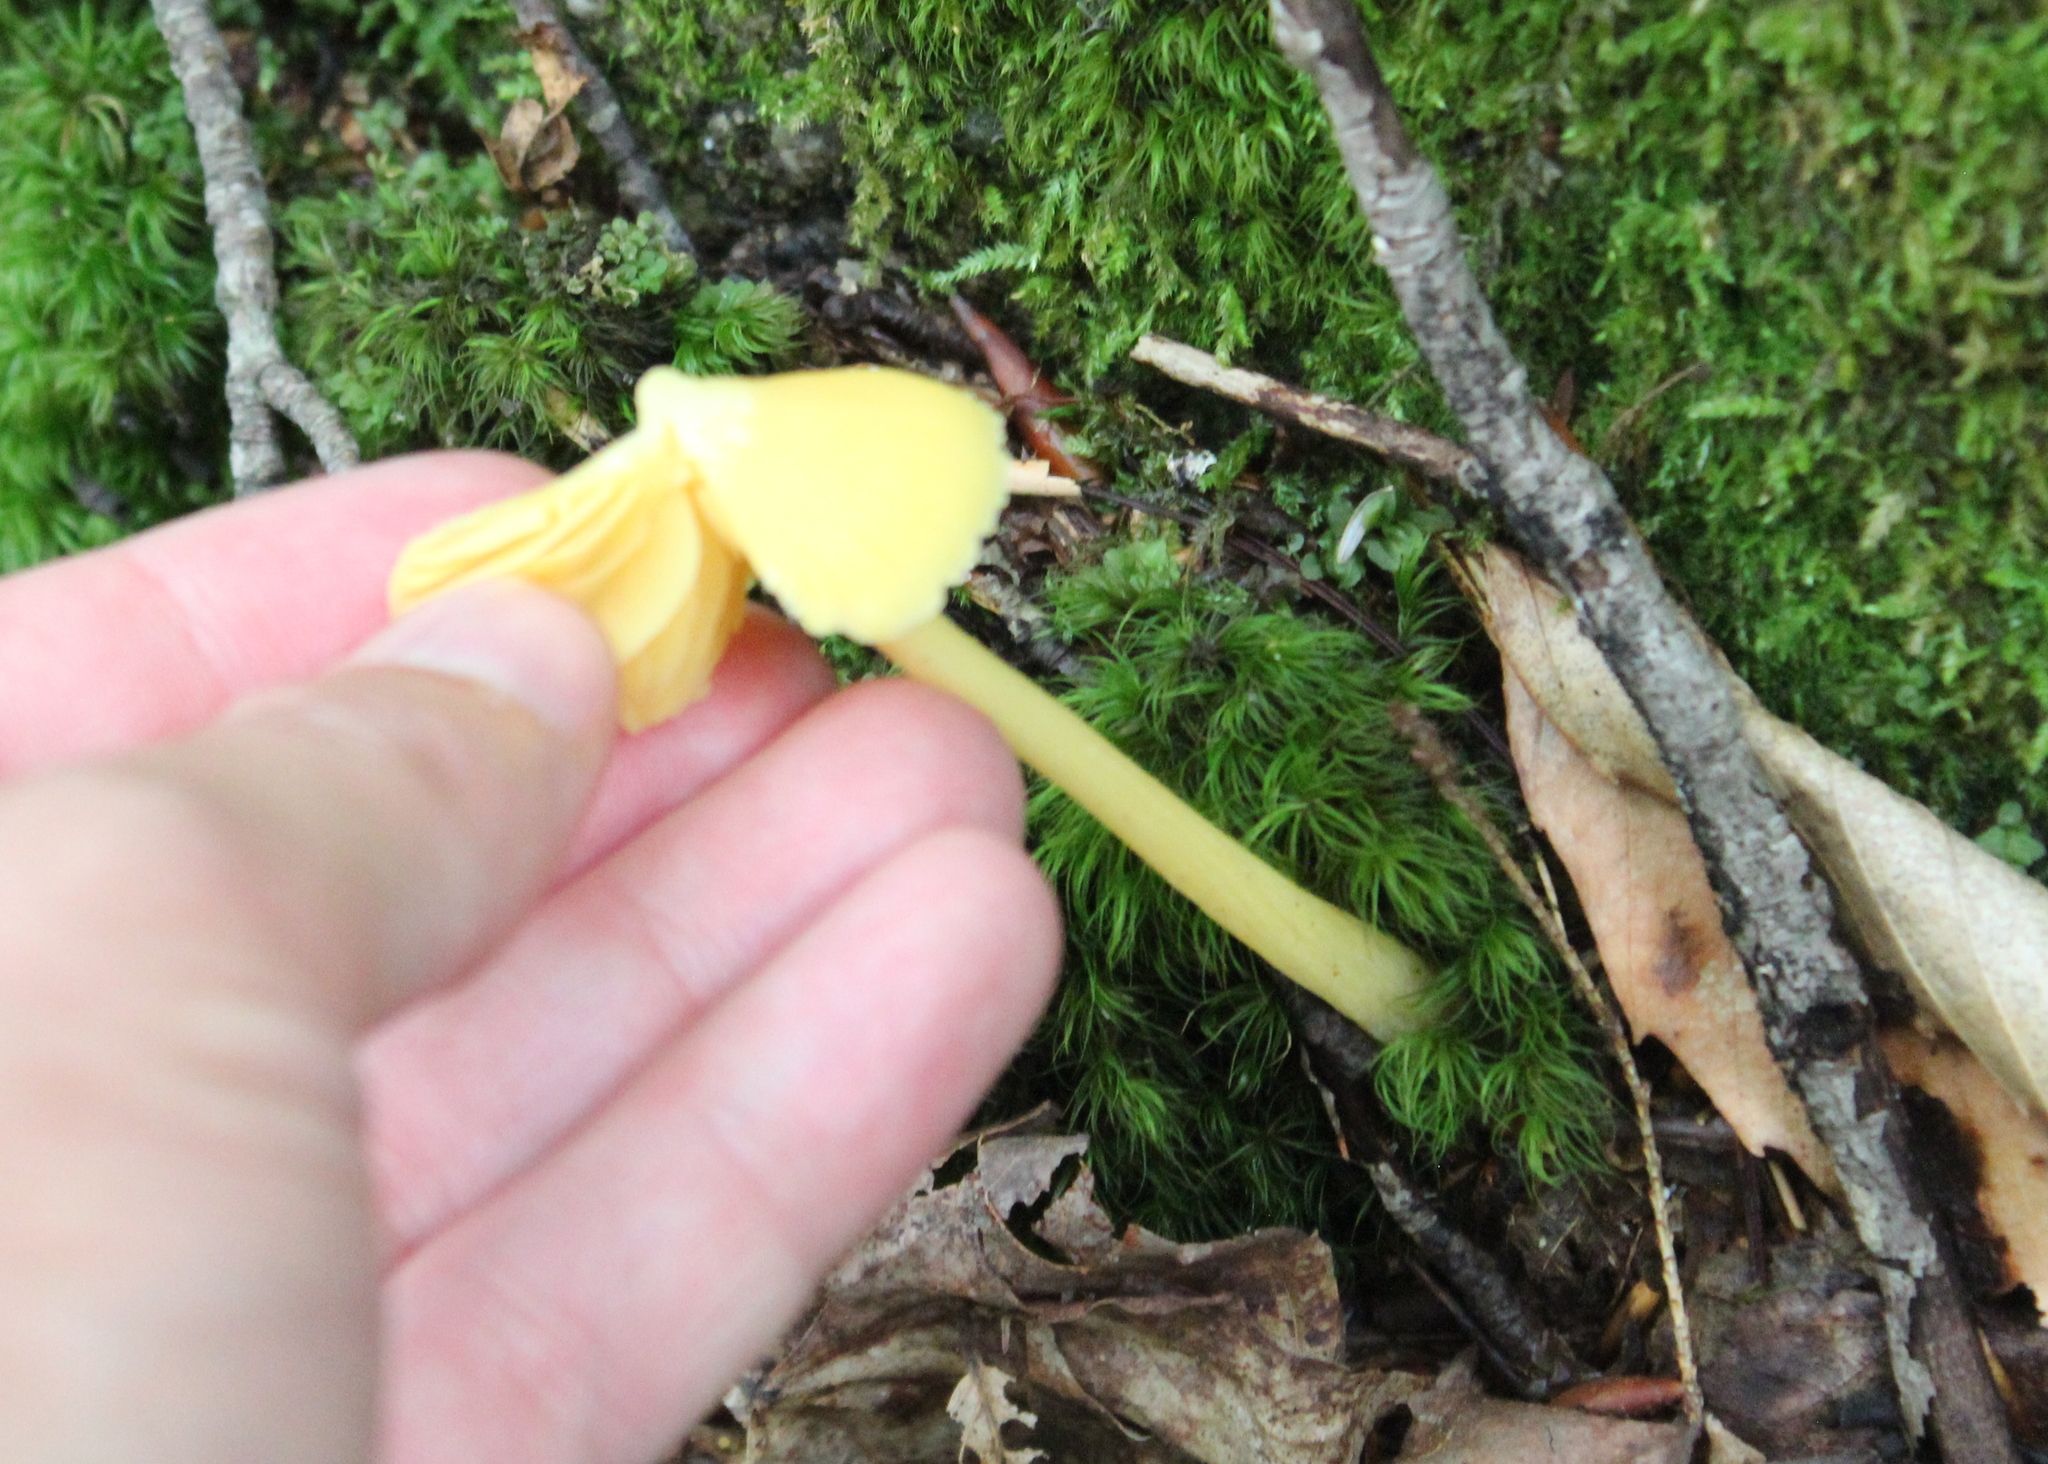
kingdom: Fungi
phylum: Basidiomycota
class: Agaricomycetes
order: Agaricales
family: Entolomataceae
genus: Entoloma
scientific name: Entoloma murrayi
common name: Yellow unicorn entoloma
